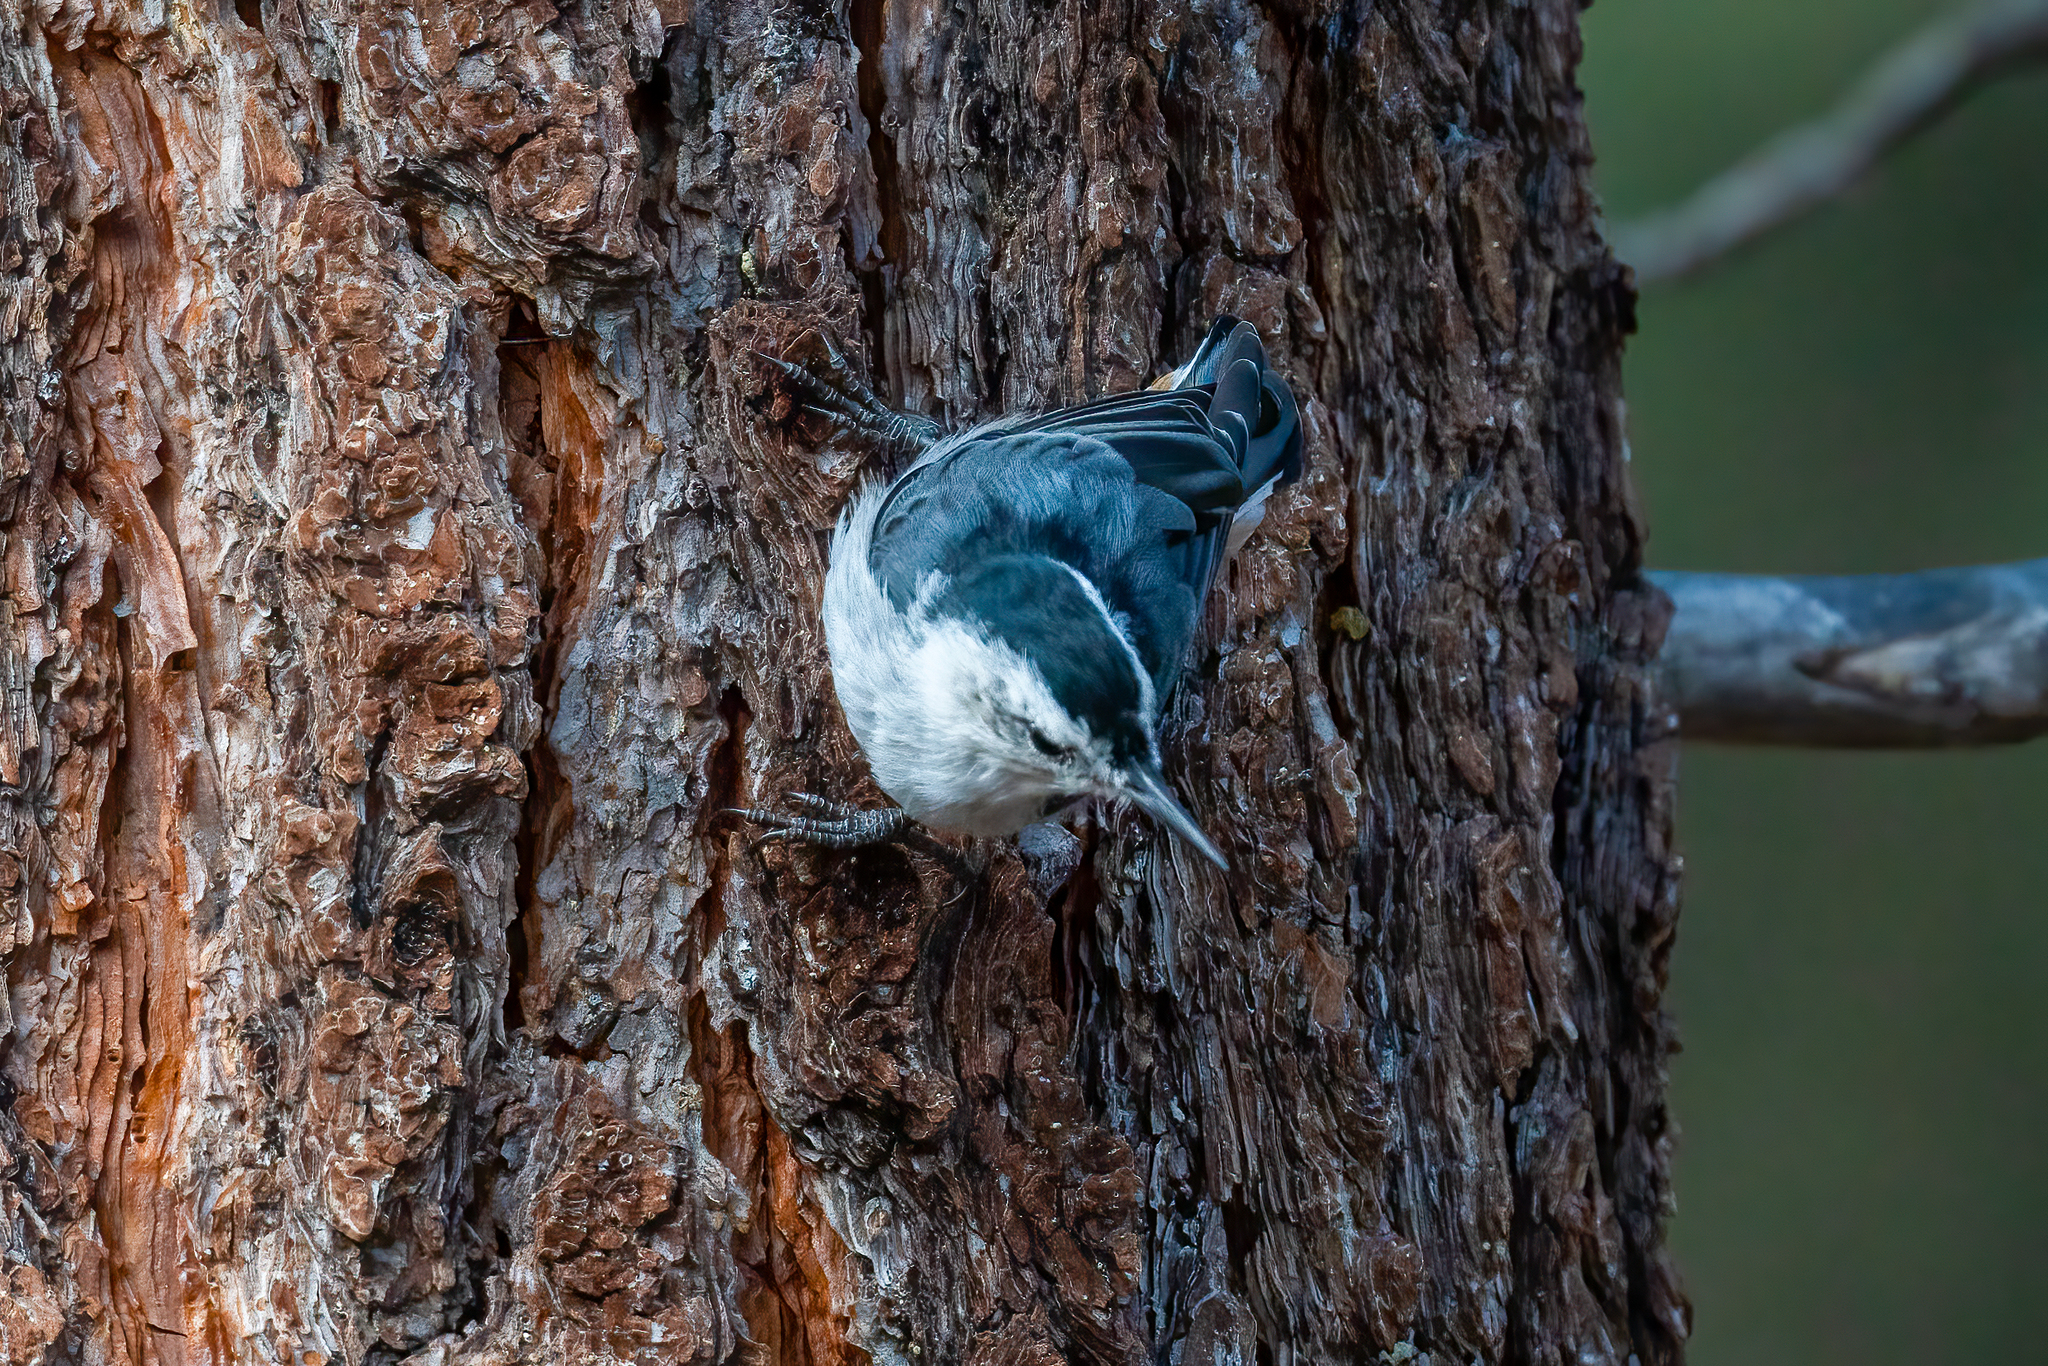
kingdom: Animalia
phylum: Chordata
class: Aves
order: Passeriformes
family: Sittidae
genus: Sitta
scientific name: Sitta carolinensis
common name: White-breasted nuthatch
